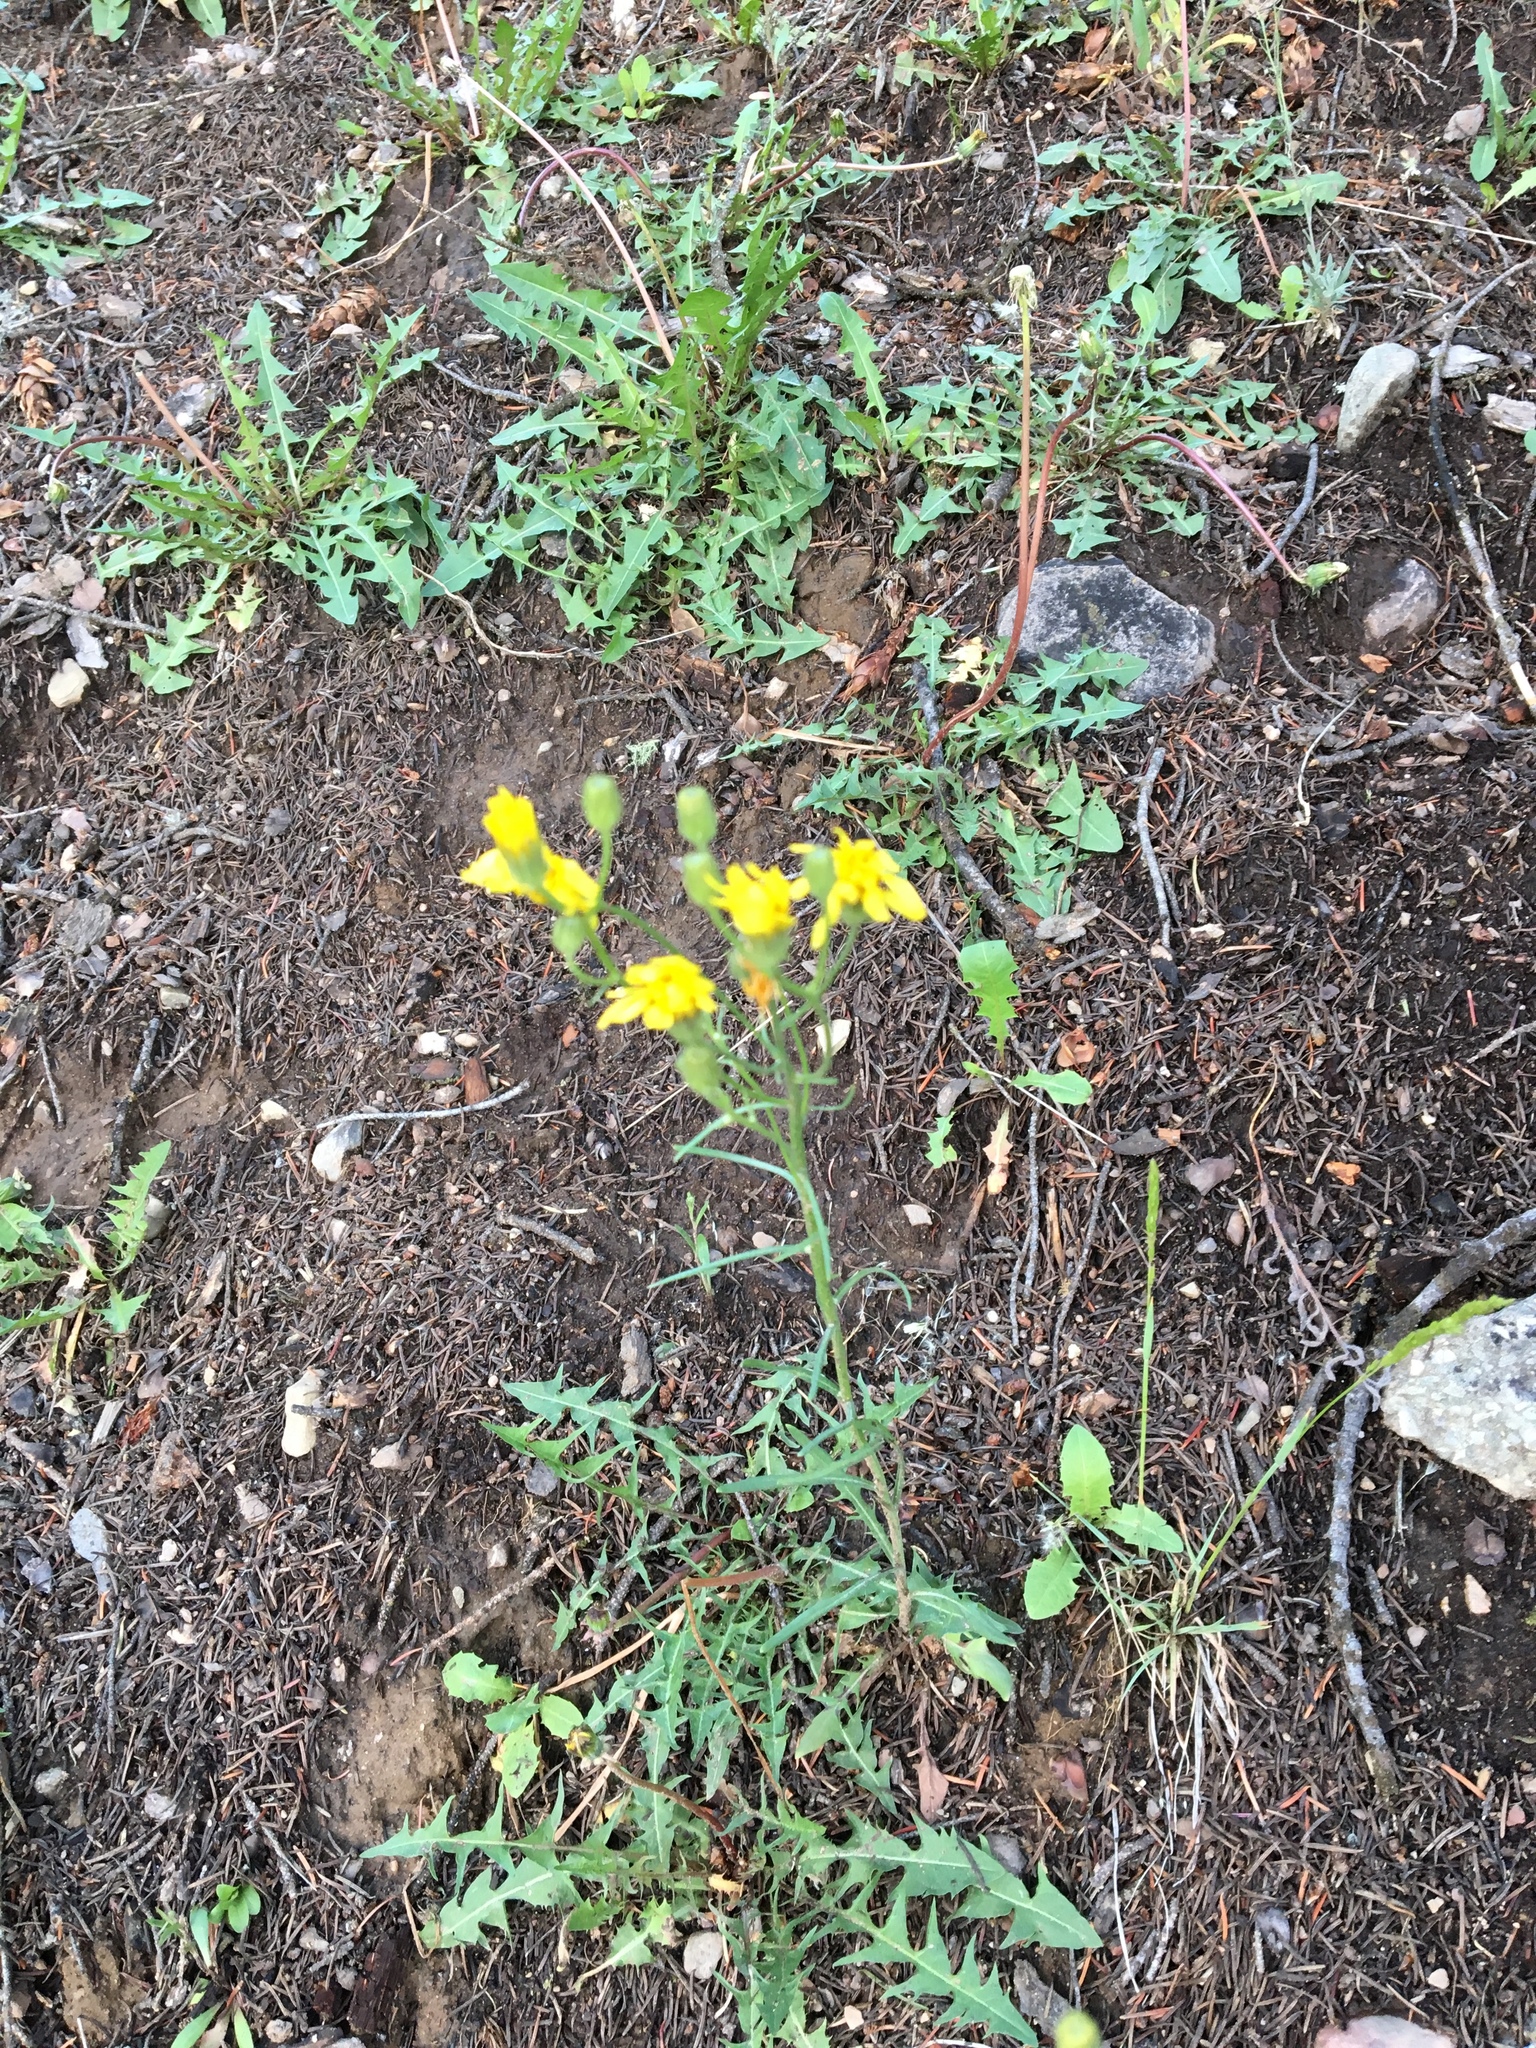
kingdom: Plantae
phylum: Tracheophyta
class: Magnoliopsida
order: Asterales
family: Asteraceae
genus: Hieracium
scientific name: Hieracium umbellatum
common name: Northern hawkweed
